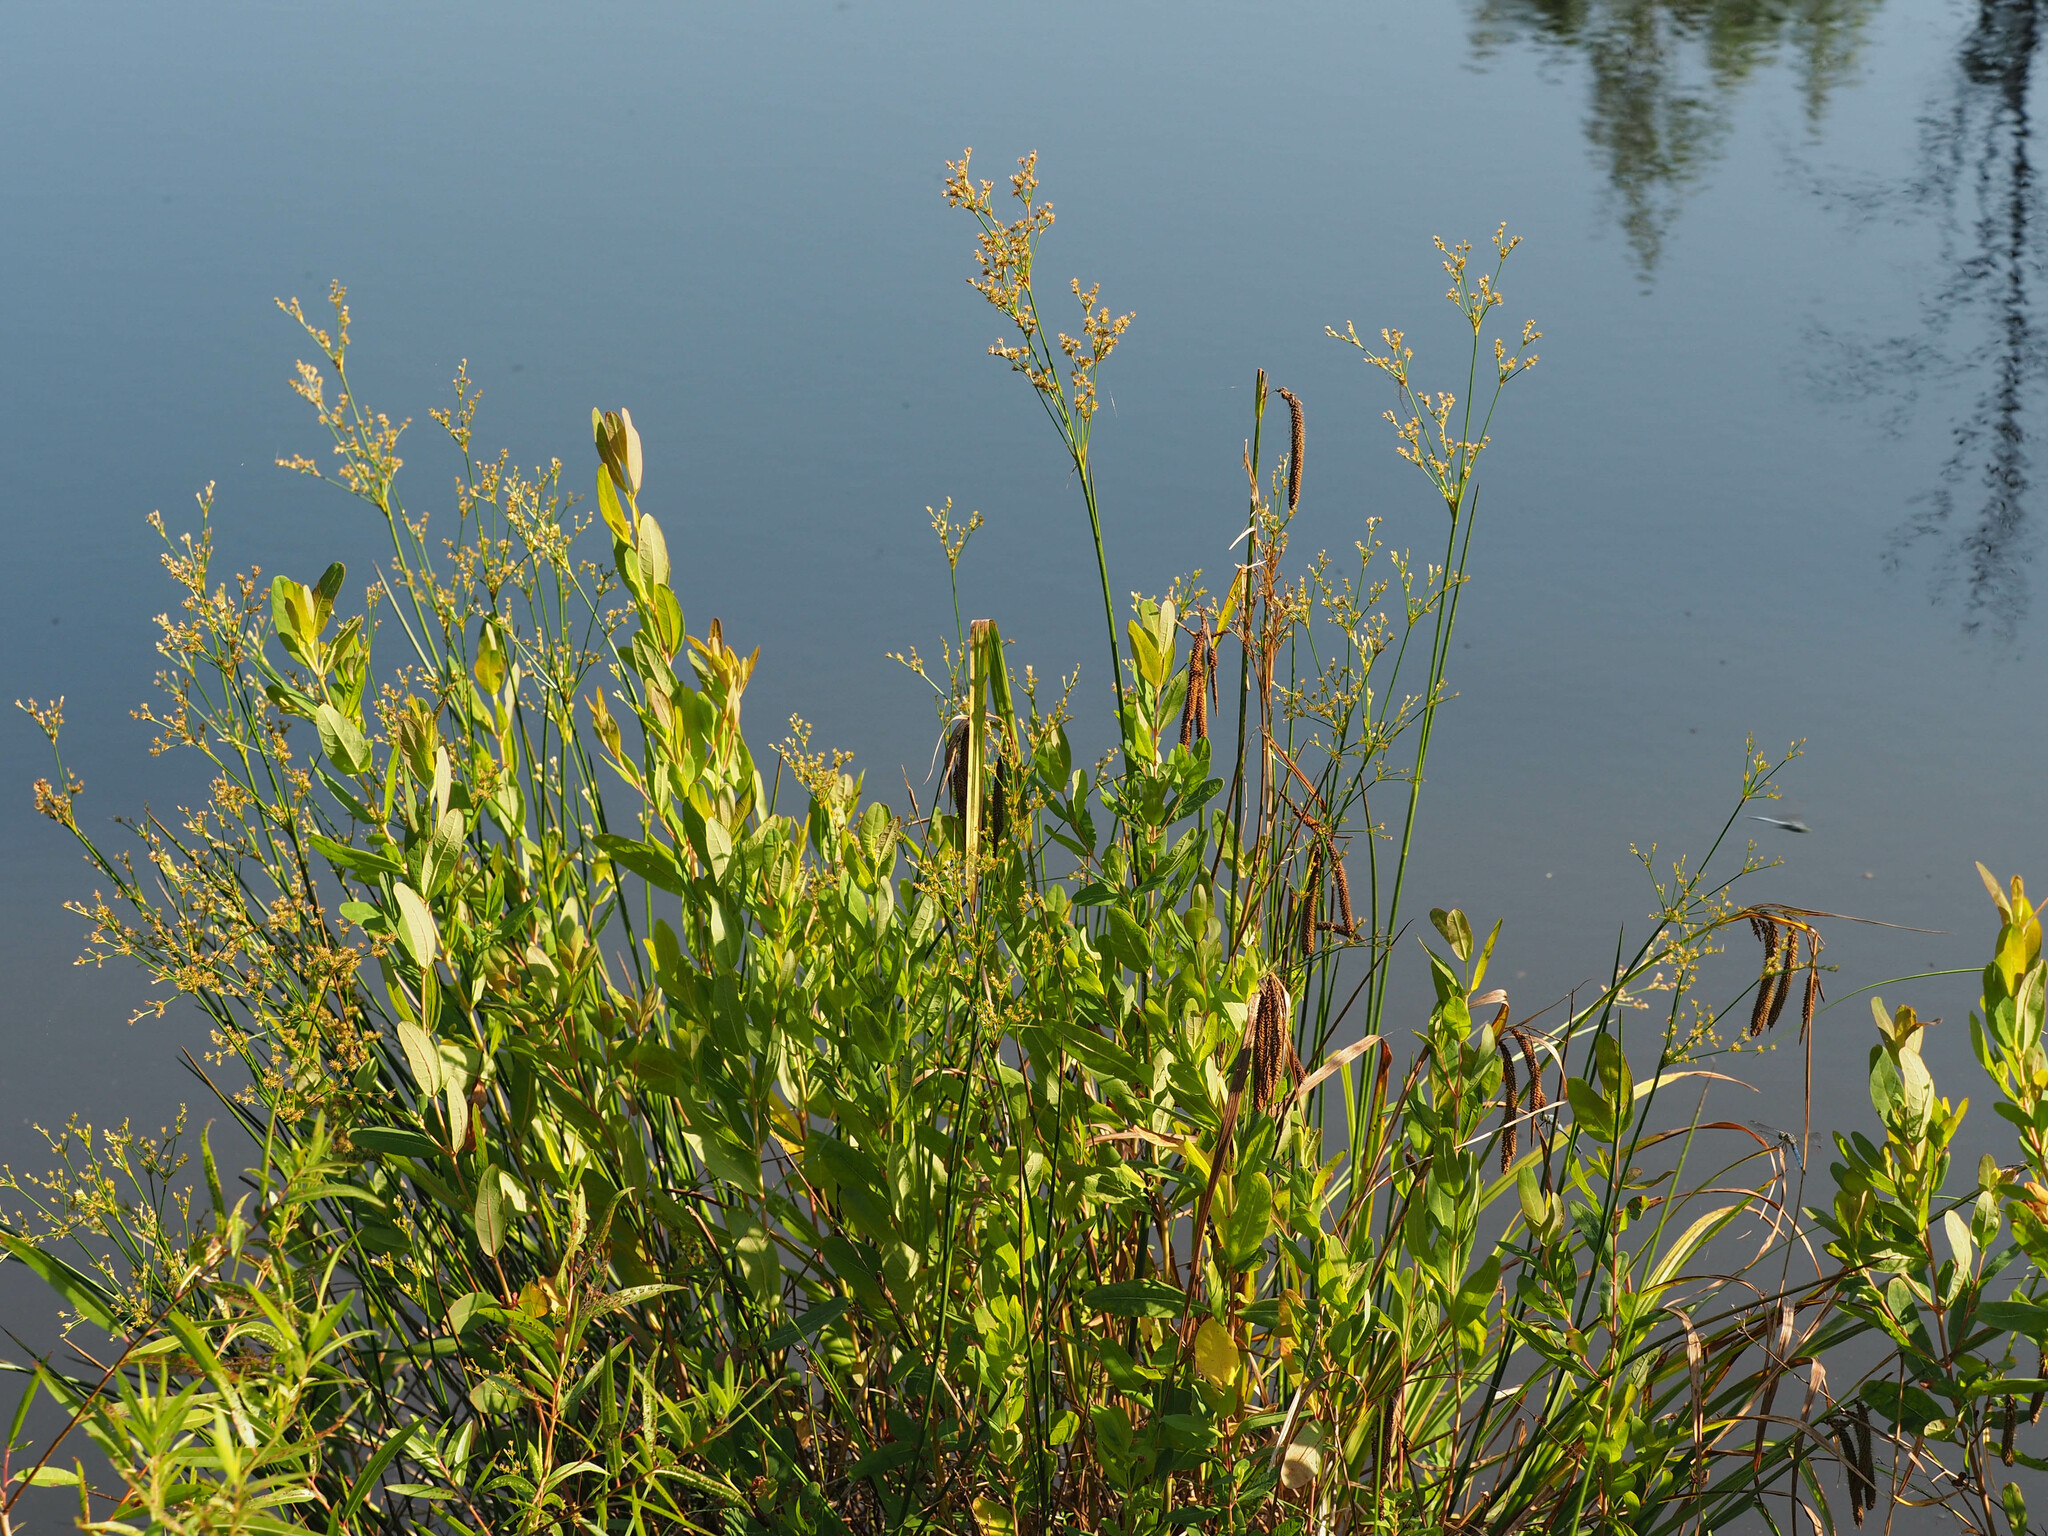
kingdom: Plantae
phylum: Tracheophyta
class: Liliopsida
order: Poales
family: Cyperaceae
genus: Scirpus
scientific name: Scirpus cyperinus
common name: Black-sheathed bulrush
